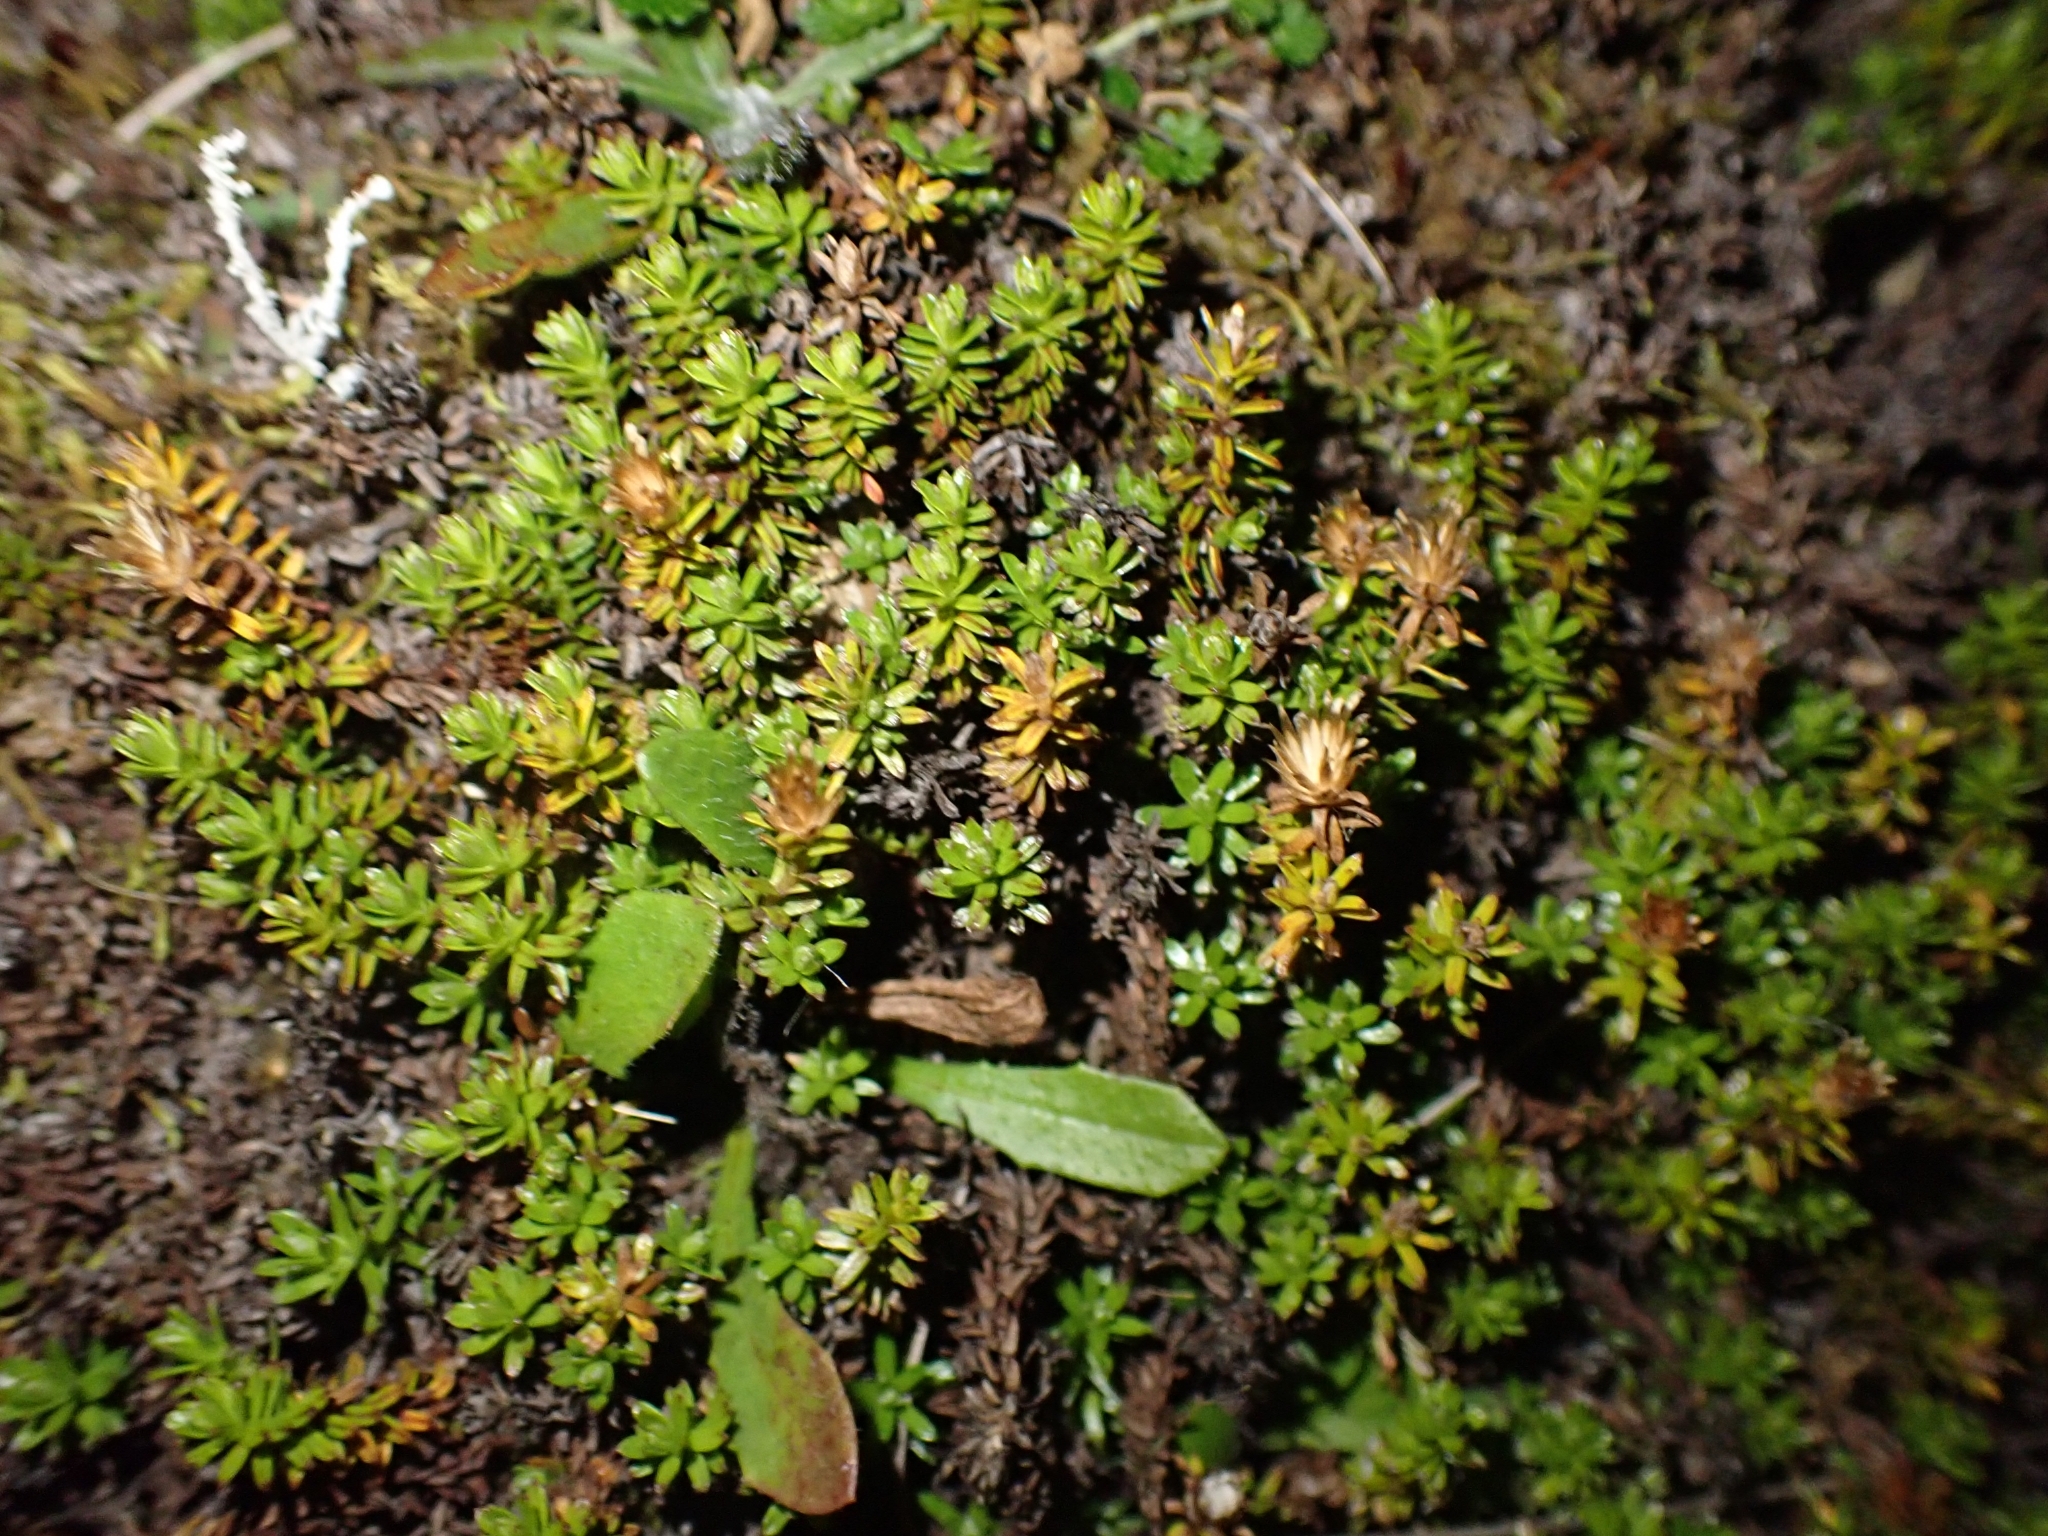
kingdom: Plantae
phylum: Tracheophyta
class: Magnoliopsida
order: Asterales
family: Asteraceae
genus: Raoulia
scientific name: Raoulia glabra
